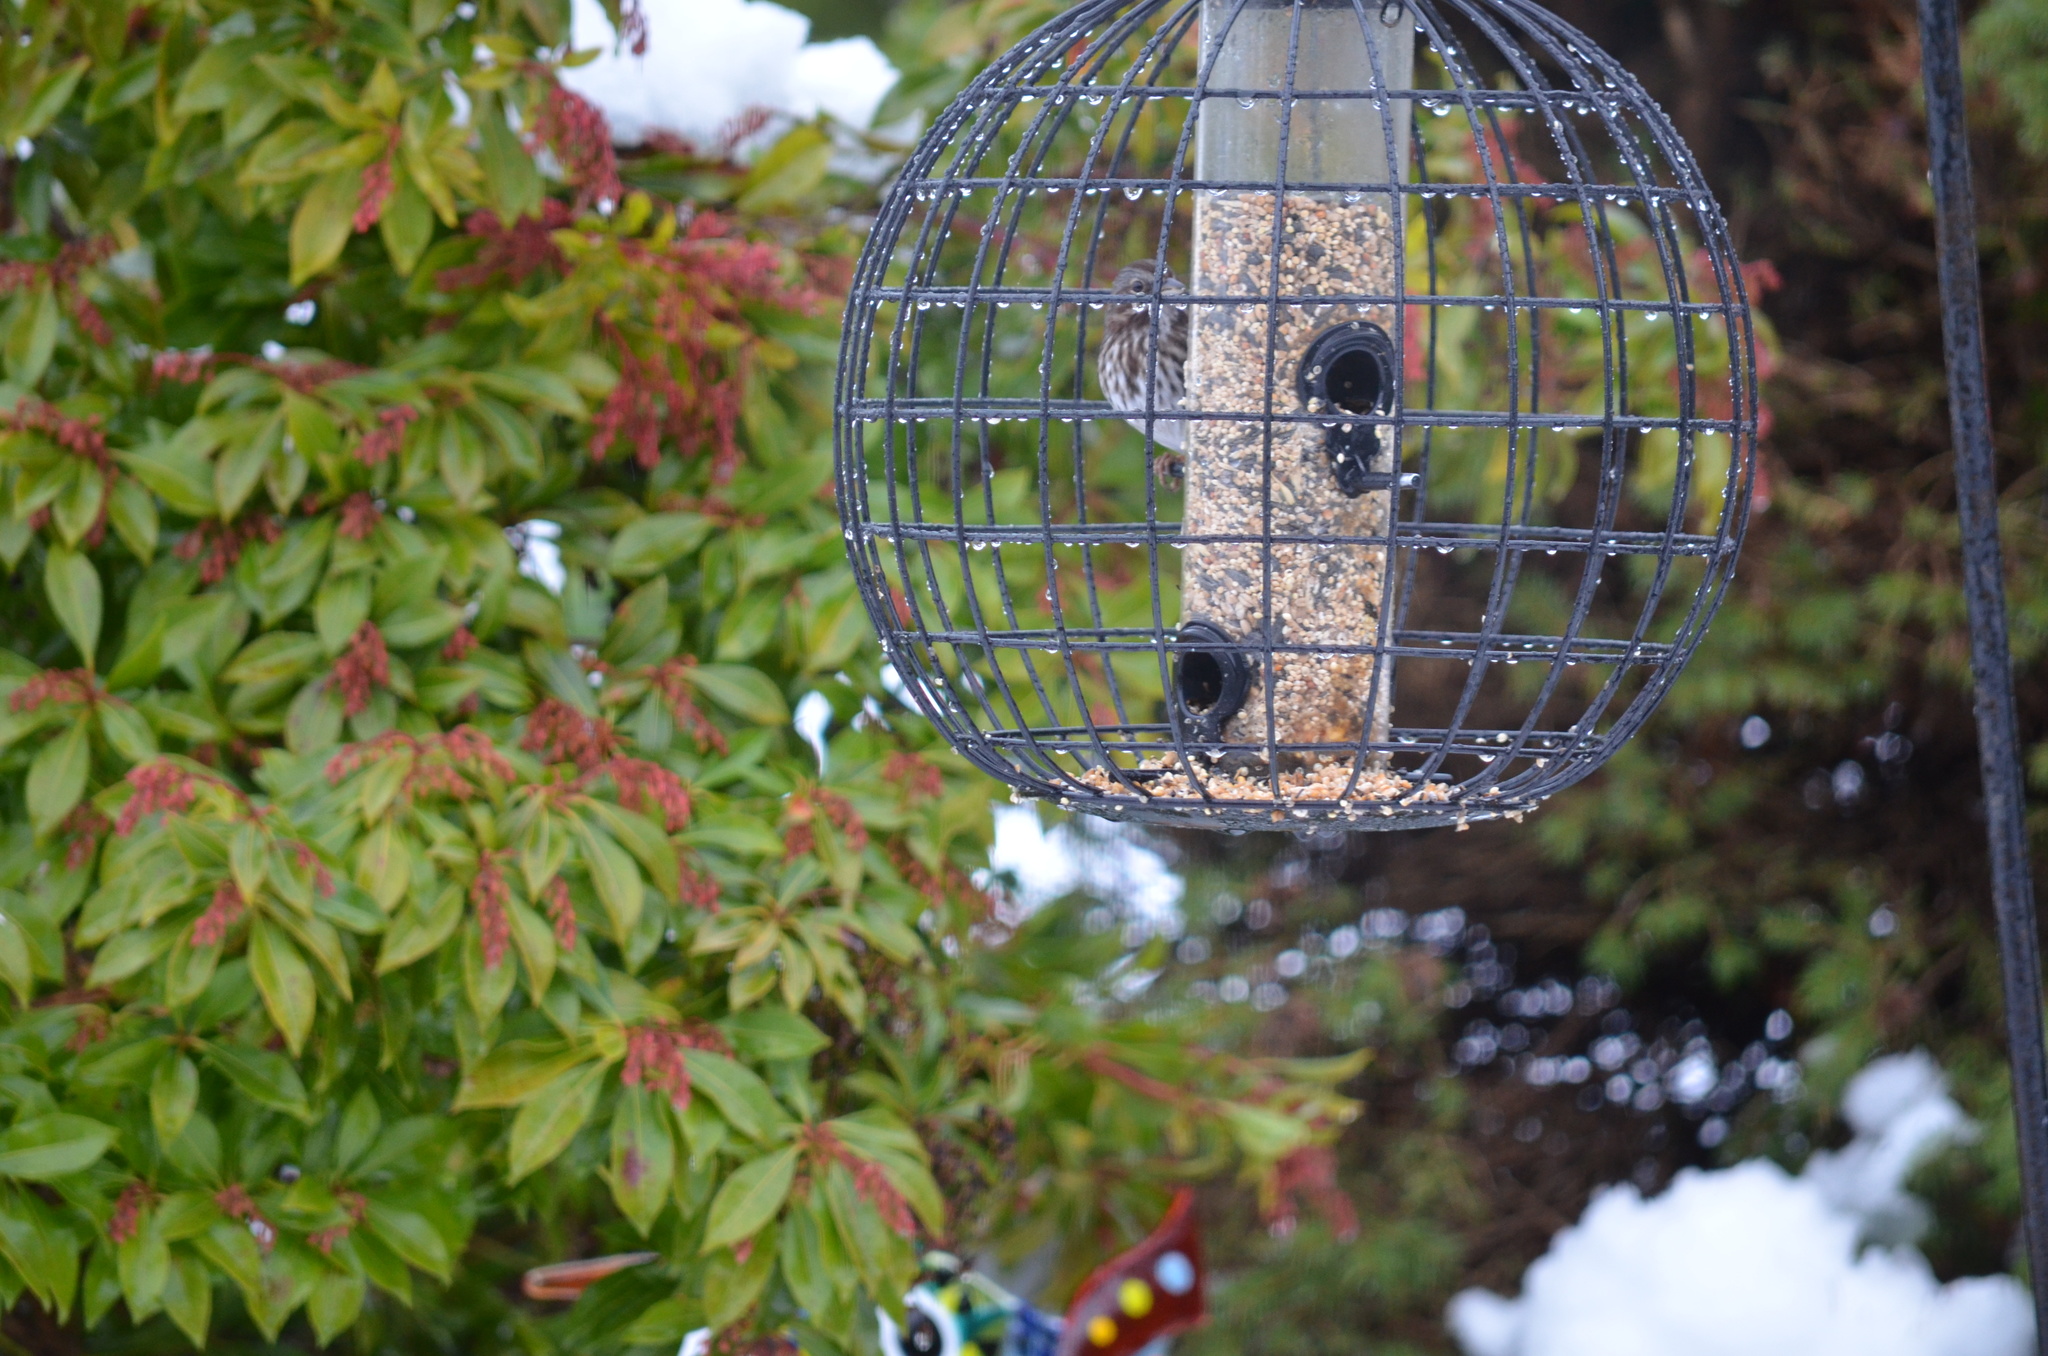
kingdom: Animalia
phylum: Chordata
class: Aves
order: Passeriformes
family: Passerellidae
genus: Melospiza
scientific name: Melospiza melodia
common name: Song sparrow
